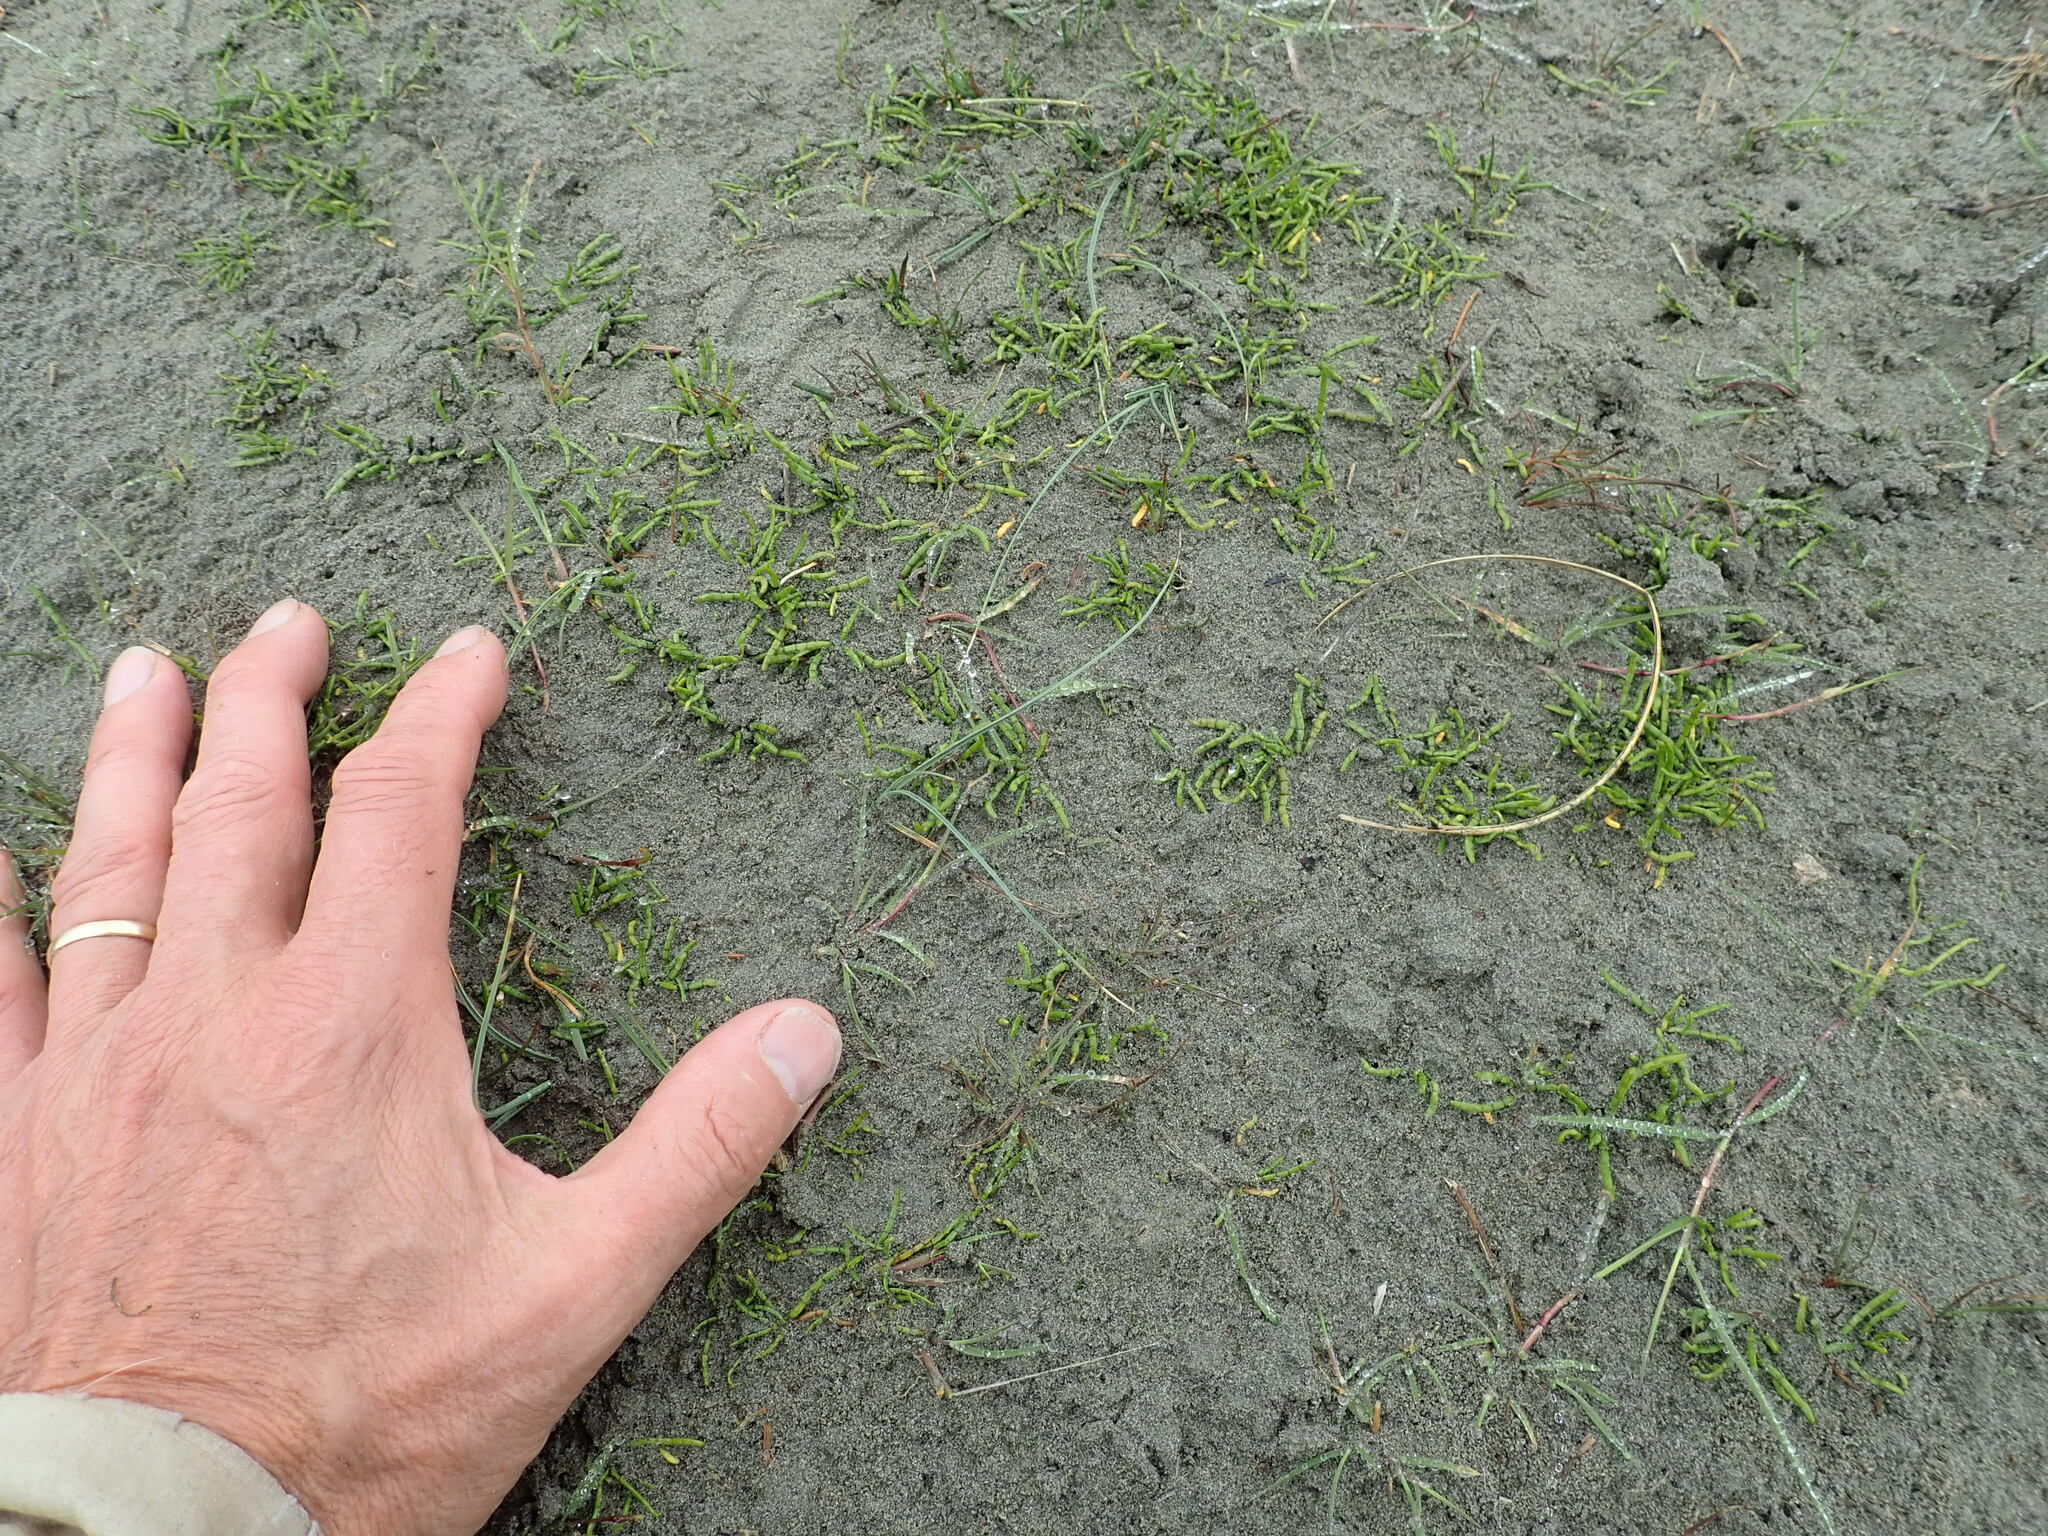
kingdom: Plantae
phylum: Tracheophyta
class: Magnoliopsida
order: Apiales
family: Apiaceae
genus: Lilaeopsis
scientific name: Lilaeopsis novae-zelandiae
